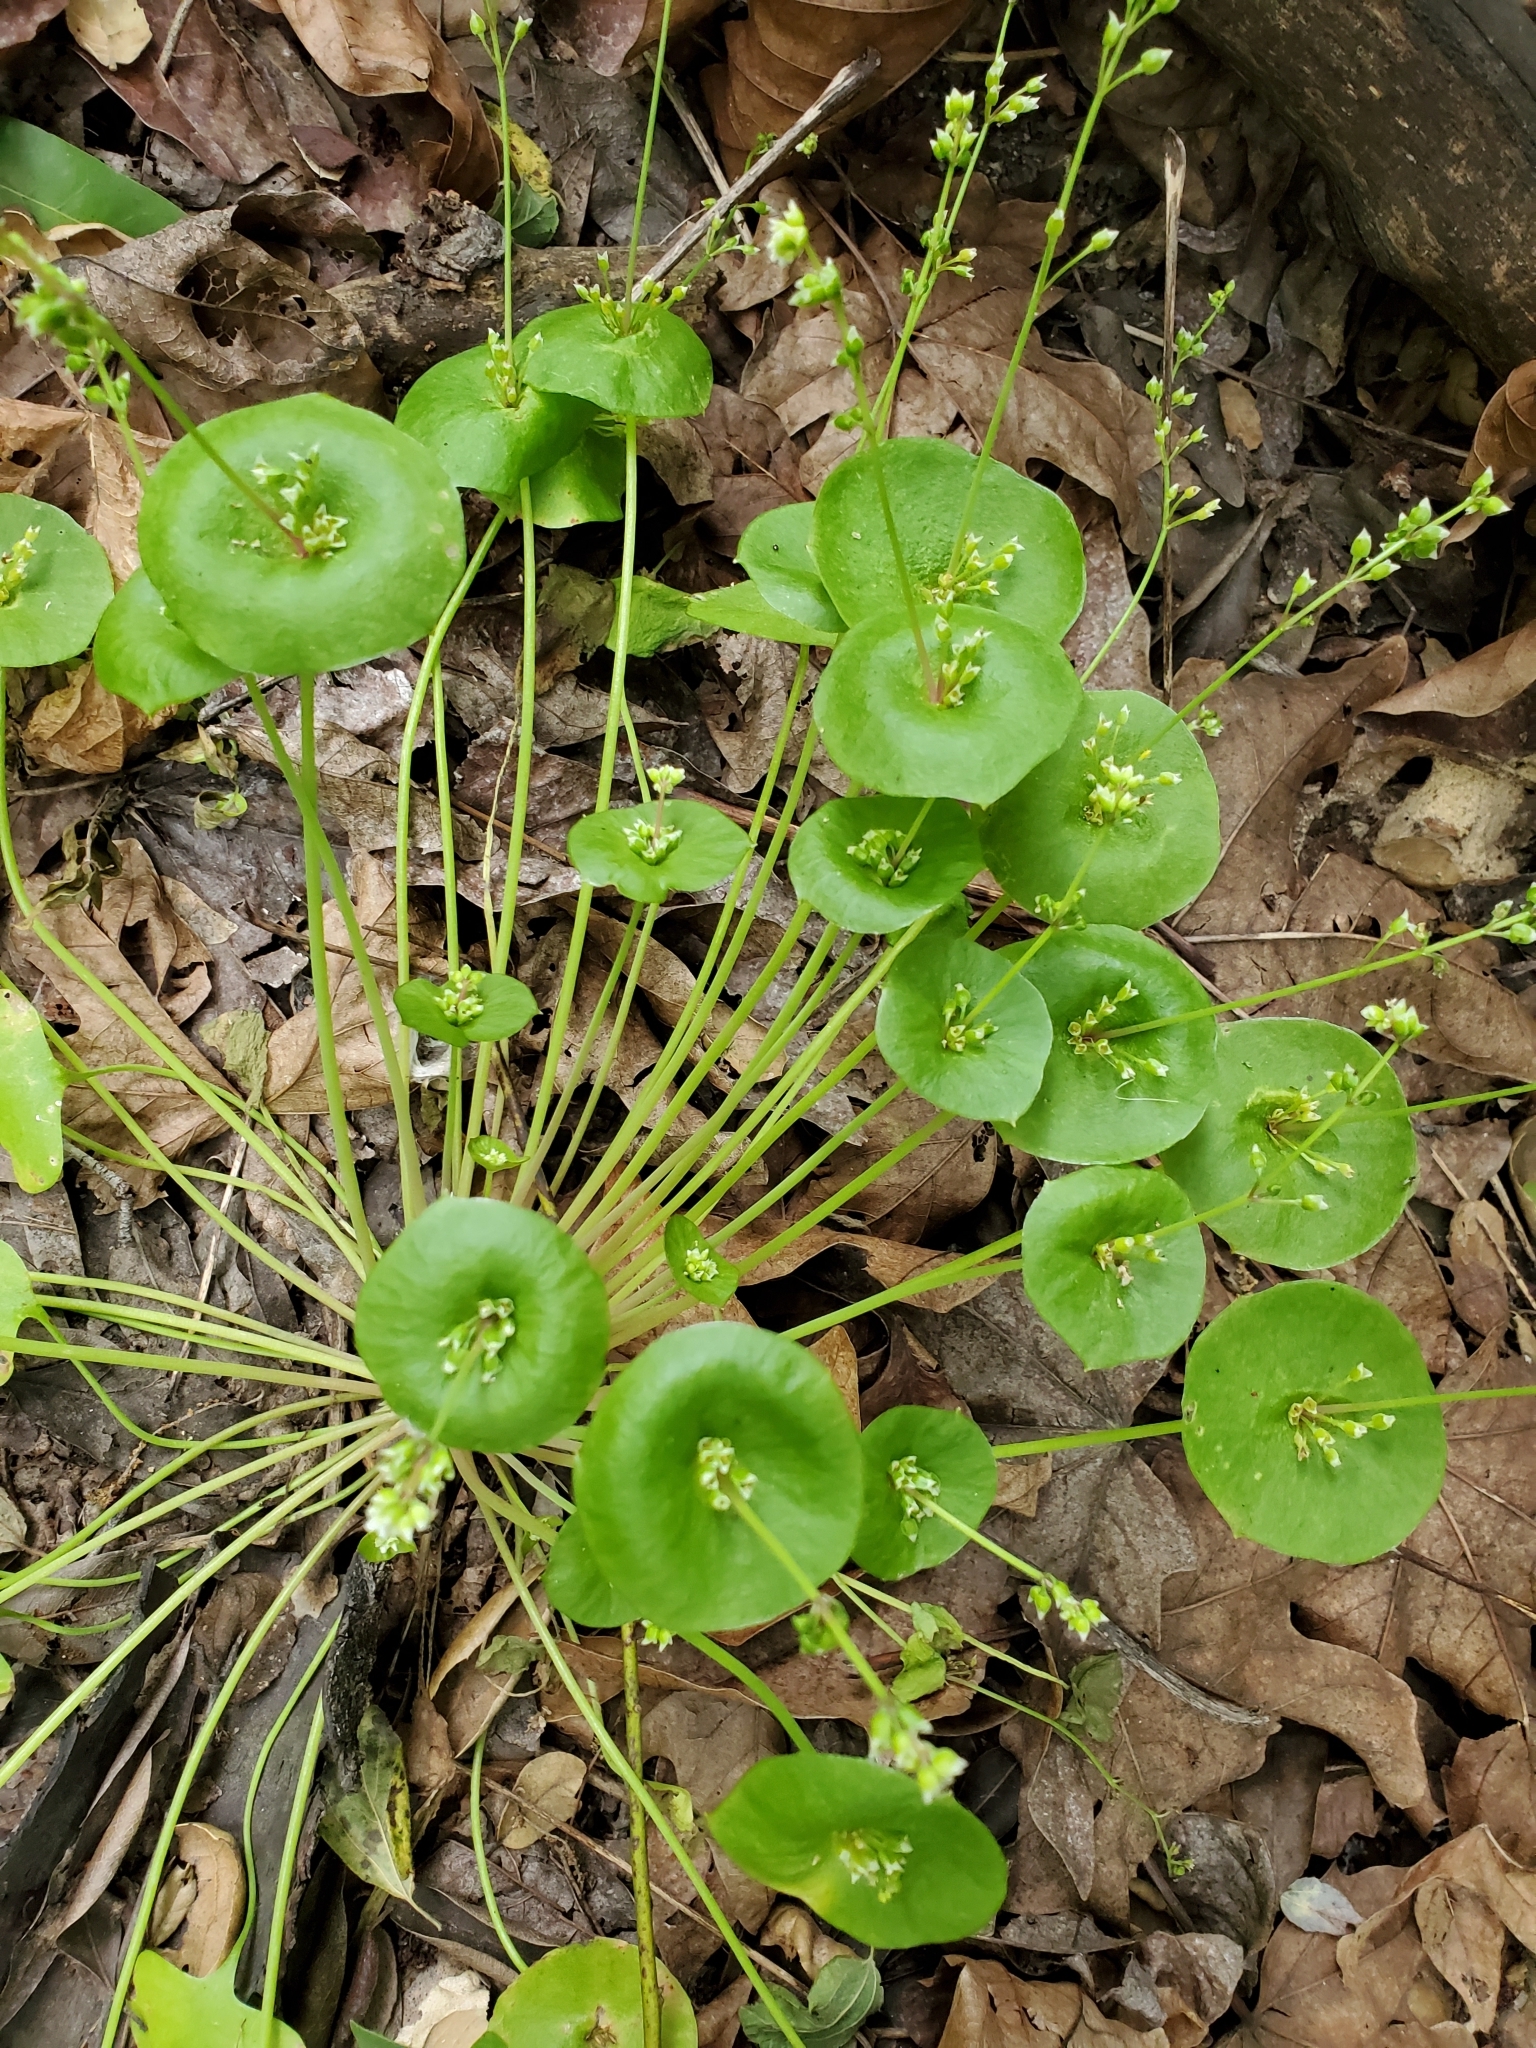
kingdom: Plantae
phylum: Tracheophyta
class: Magnoliopsida
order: Caryophyllales
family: Montiaceae
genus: Claytonia
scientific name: Claytonia perfoliata
